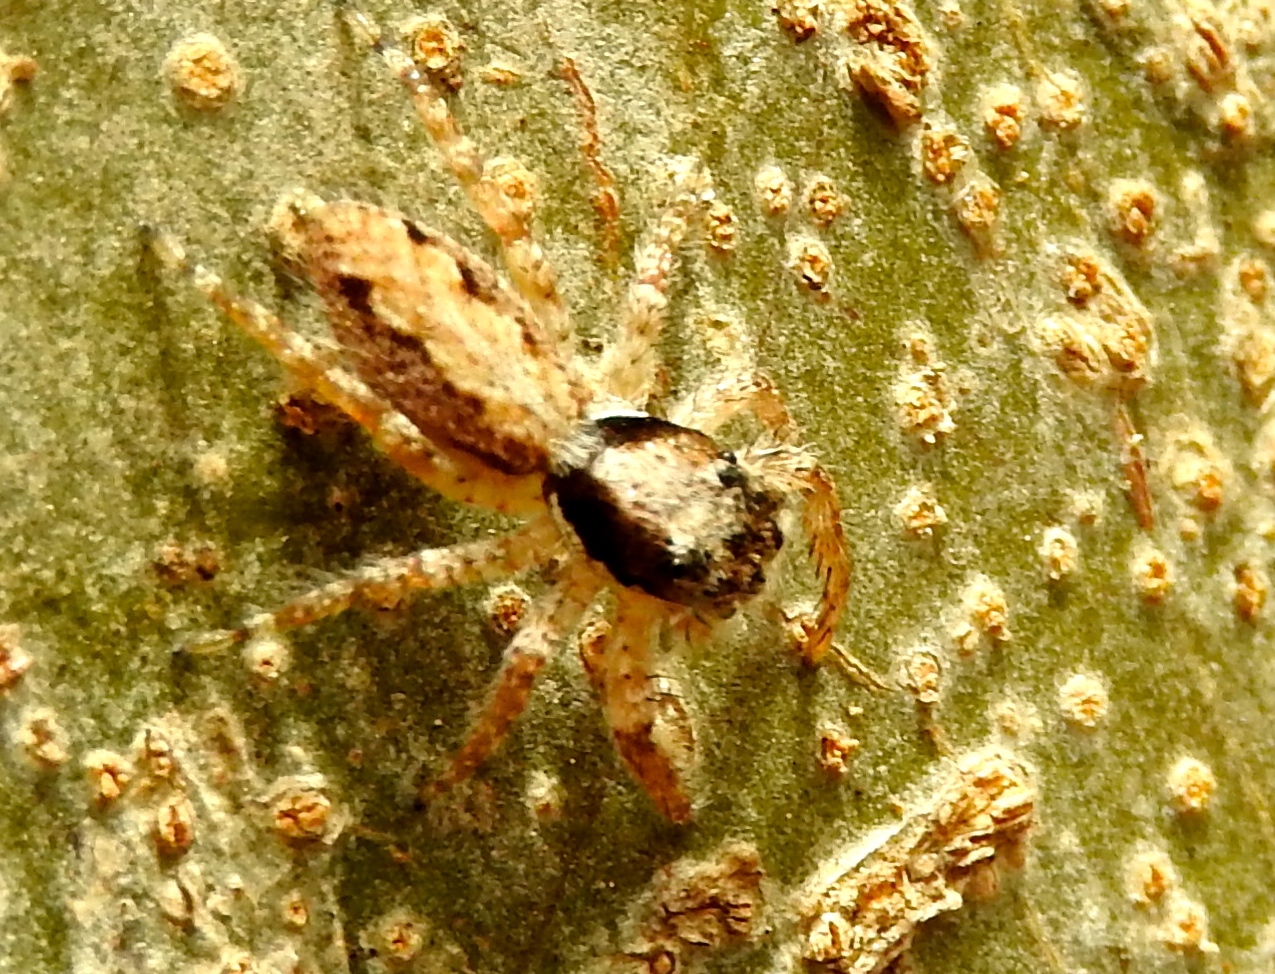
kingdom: Animalia
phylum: Arthropoda
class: Arachnida
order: Araneae
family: Salticidae
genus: Balmaceda
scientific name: Balmaceda
